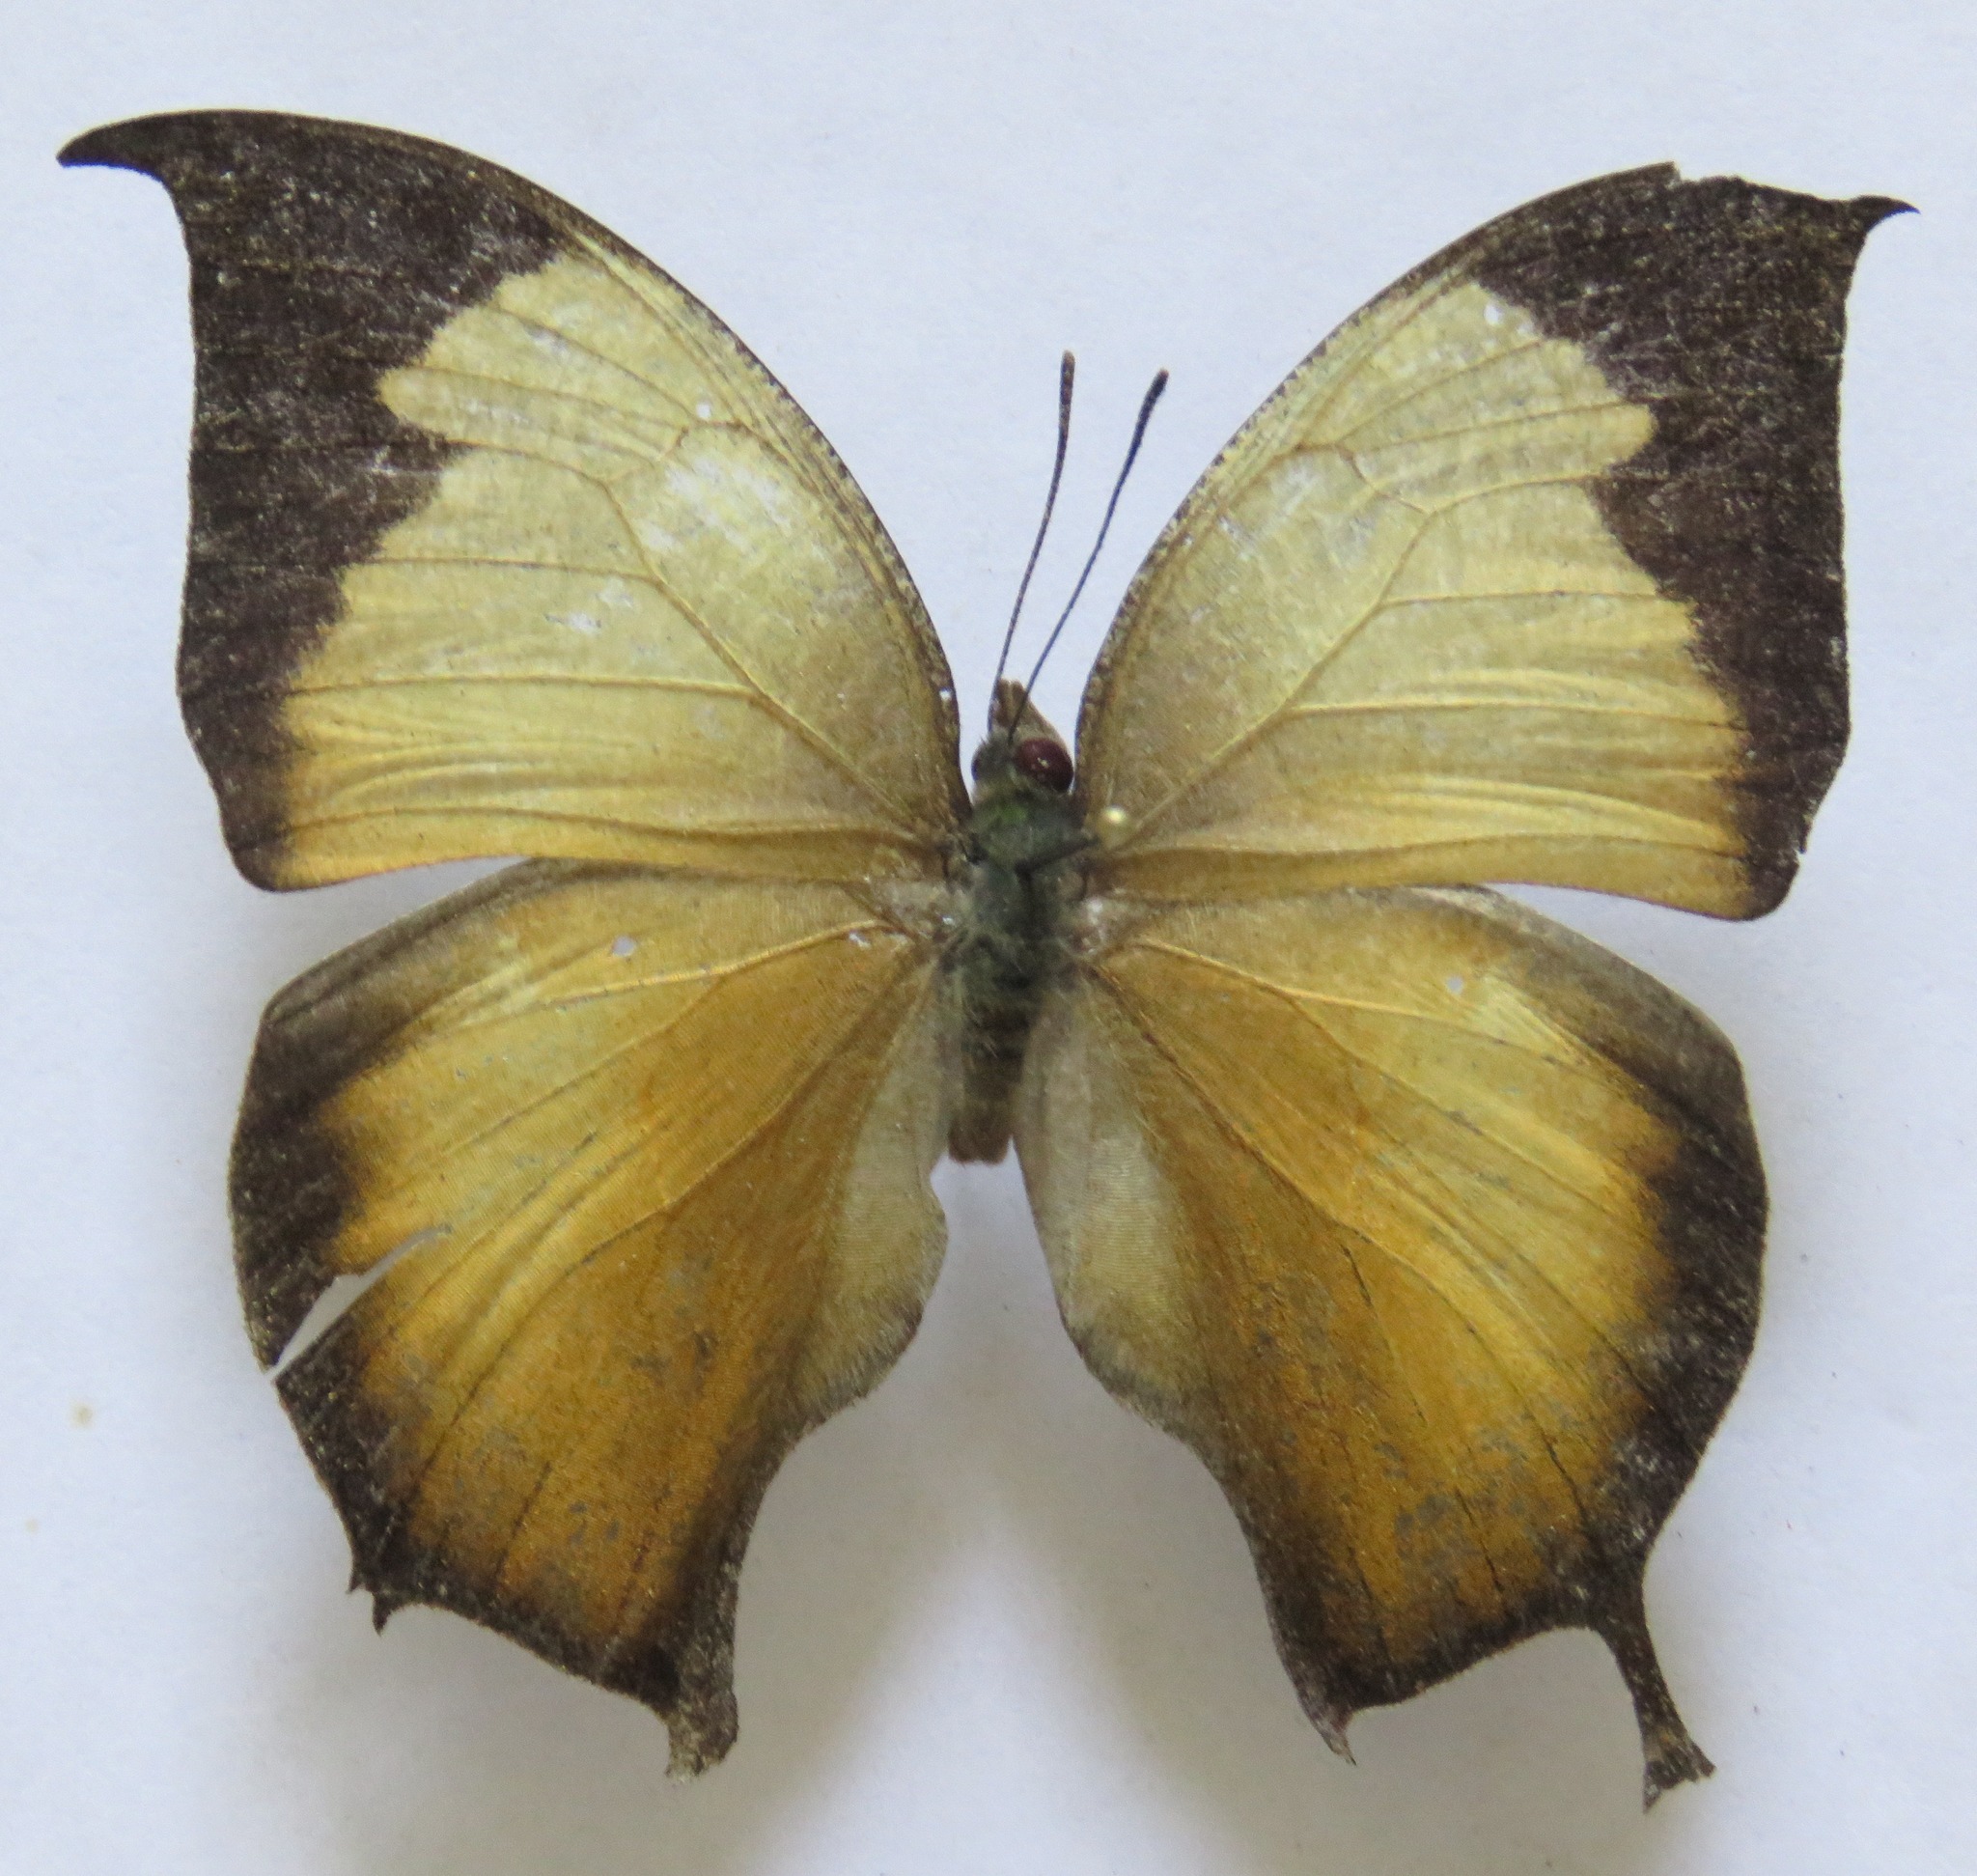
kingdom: Animalia
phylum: Arthropoda
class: Insecta
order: Lepidoptera
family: Nymphalidae
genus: Consul
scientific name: Consul electra
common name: Pearly leafwing
